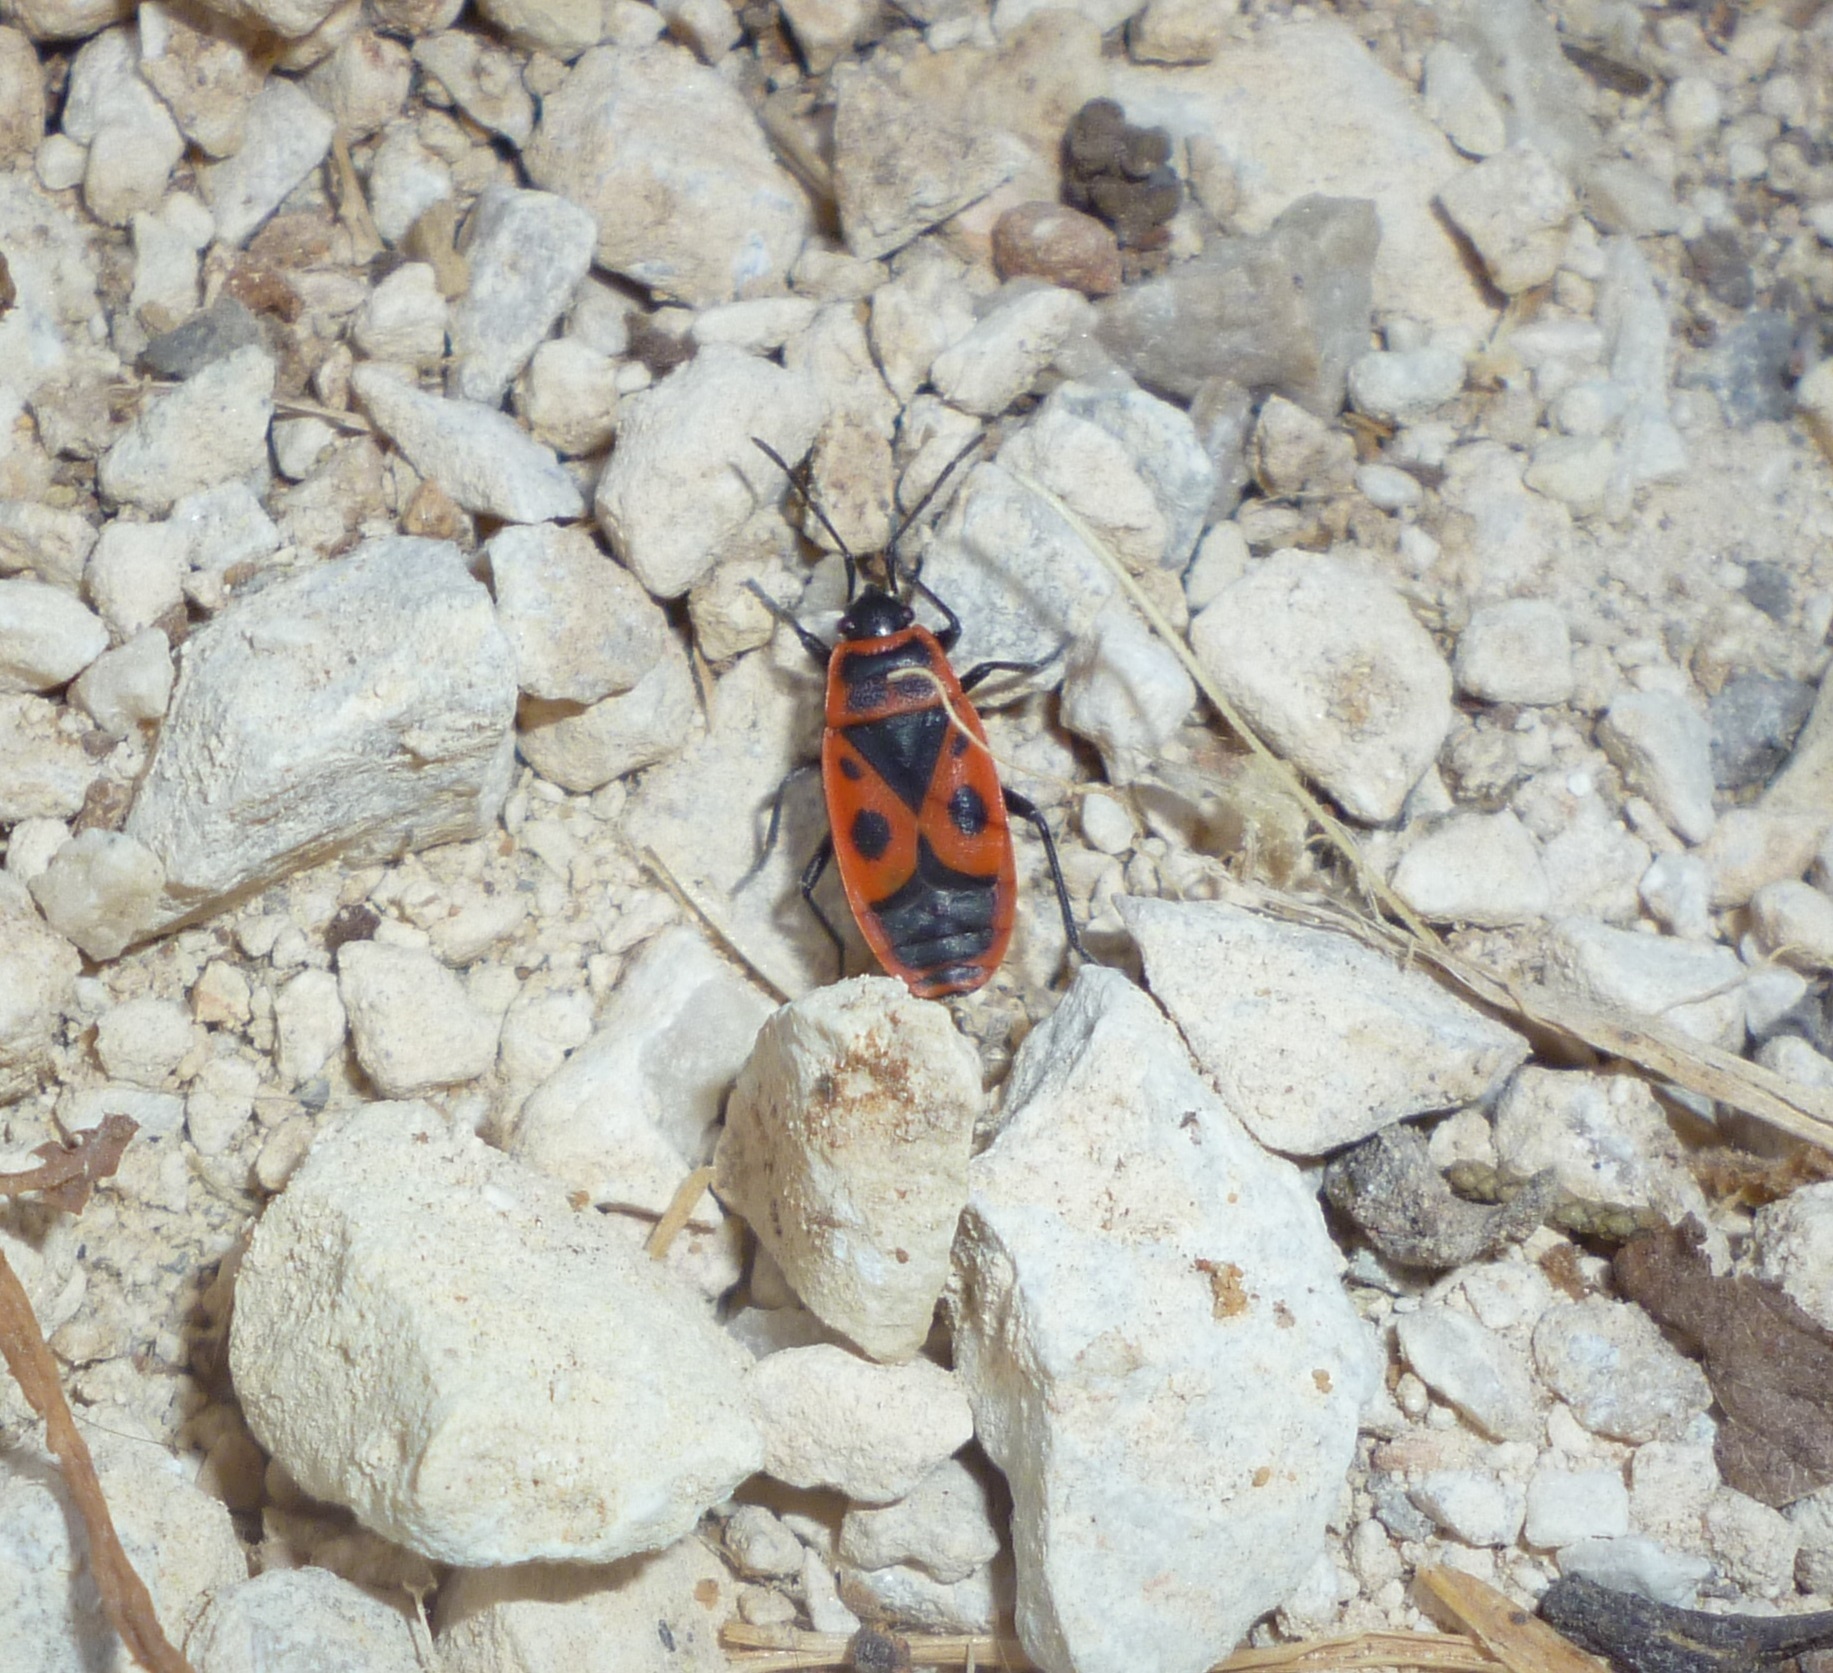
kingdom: Animalia
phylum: Arthropoda
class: Insecta
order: Hemiptera
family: Pyrrhocoridae
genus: Pyrrhocoris
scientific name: Pyrrhocoris apterus
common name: Firebug
